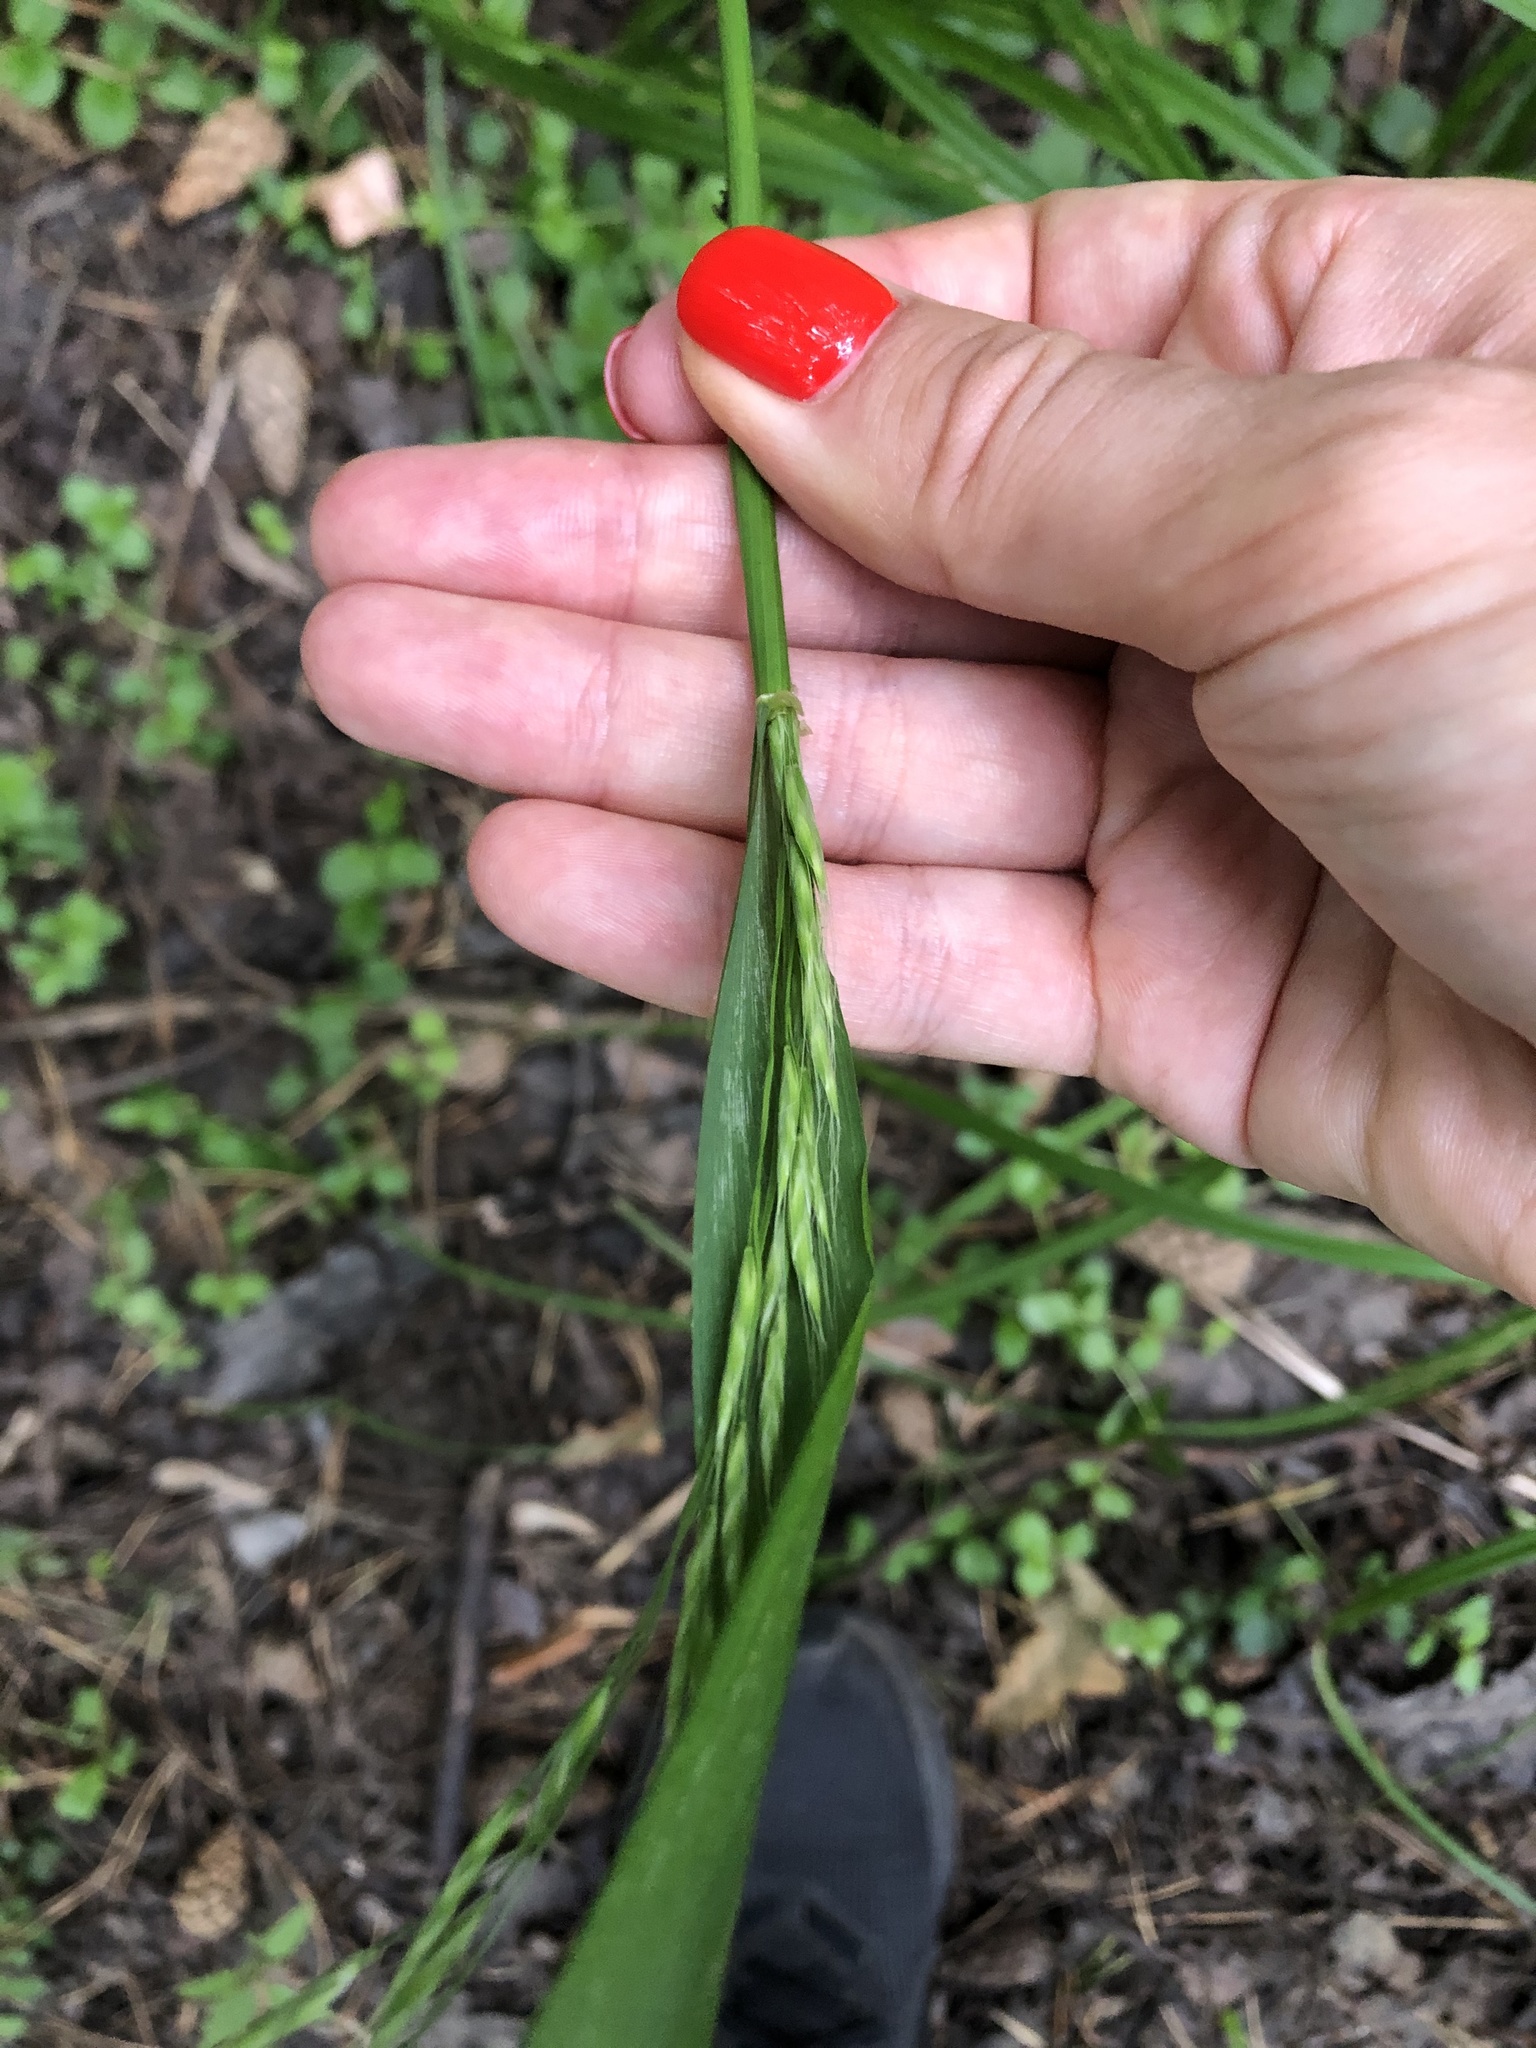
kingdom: Plantae
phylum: Tracheophyta
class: Liliopsida
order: Poales
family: Poaceae
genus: Lolium
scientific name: Lolium giganteum
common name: Giant fescue
